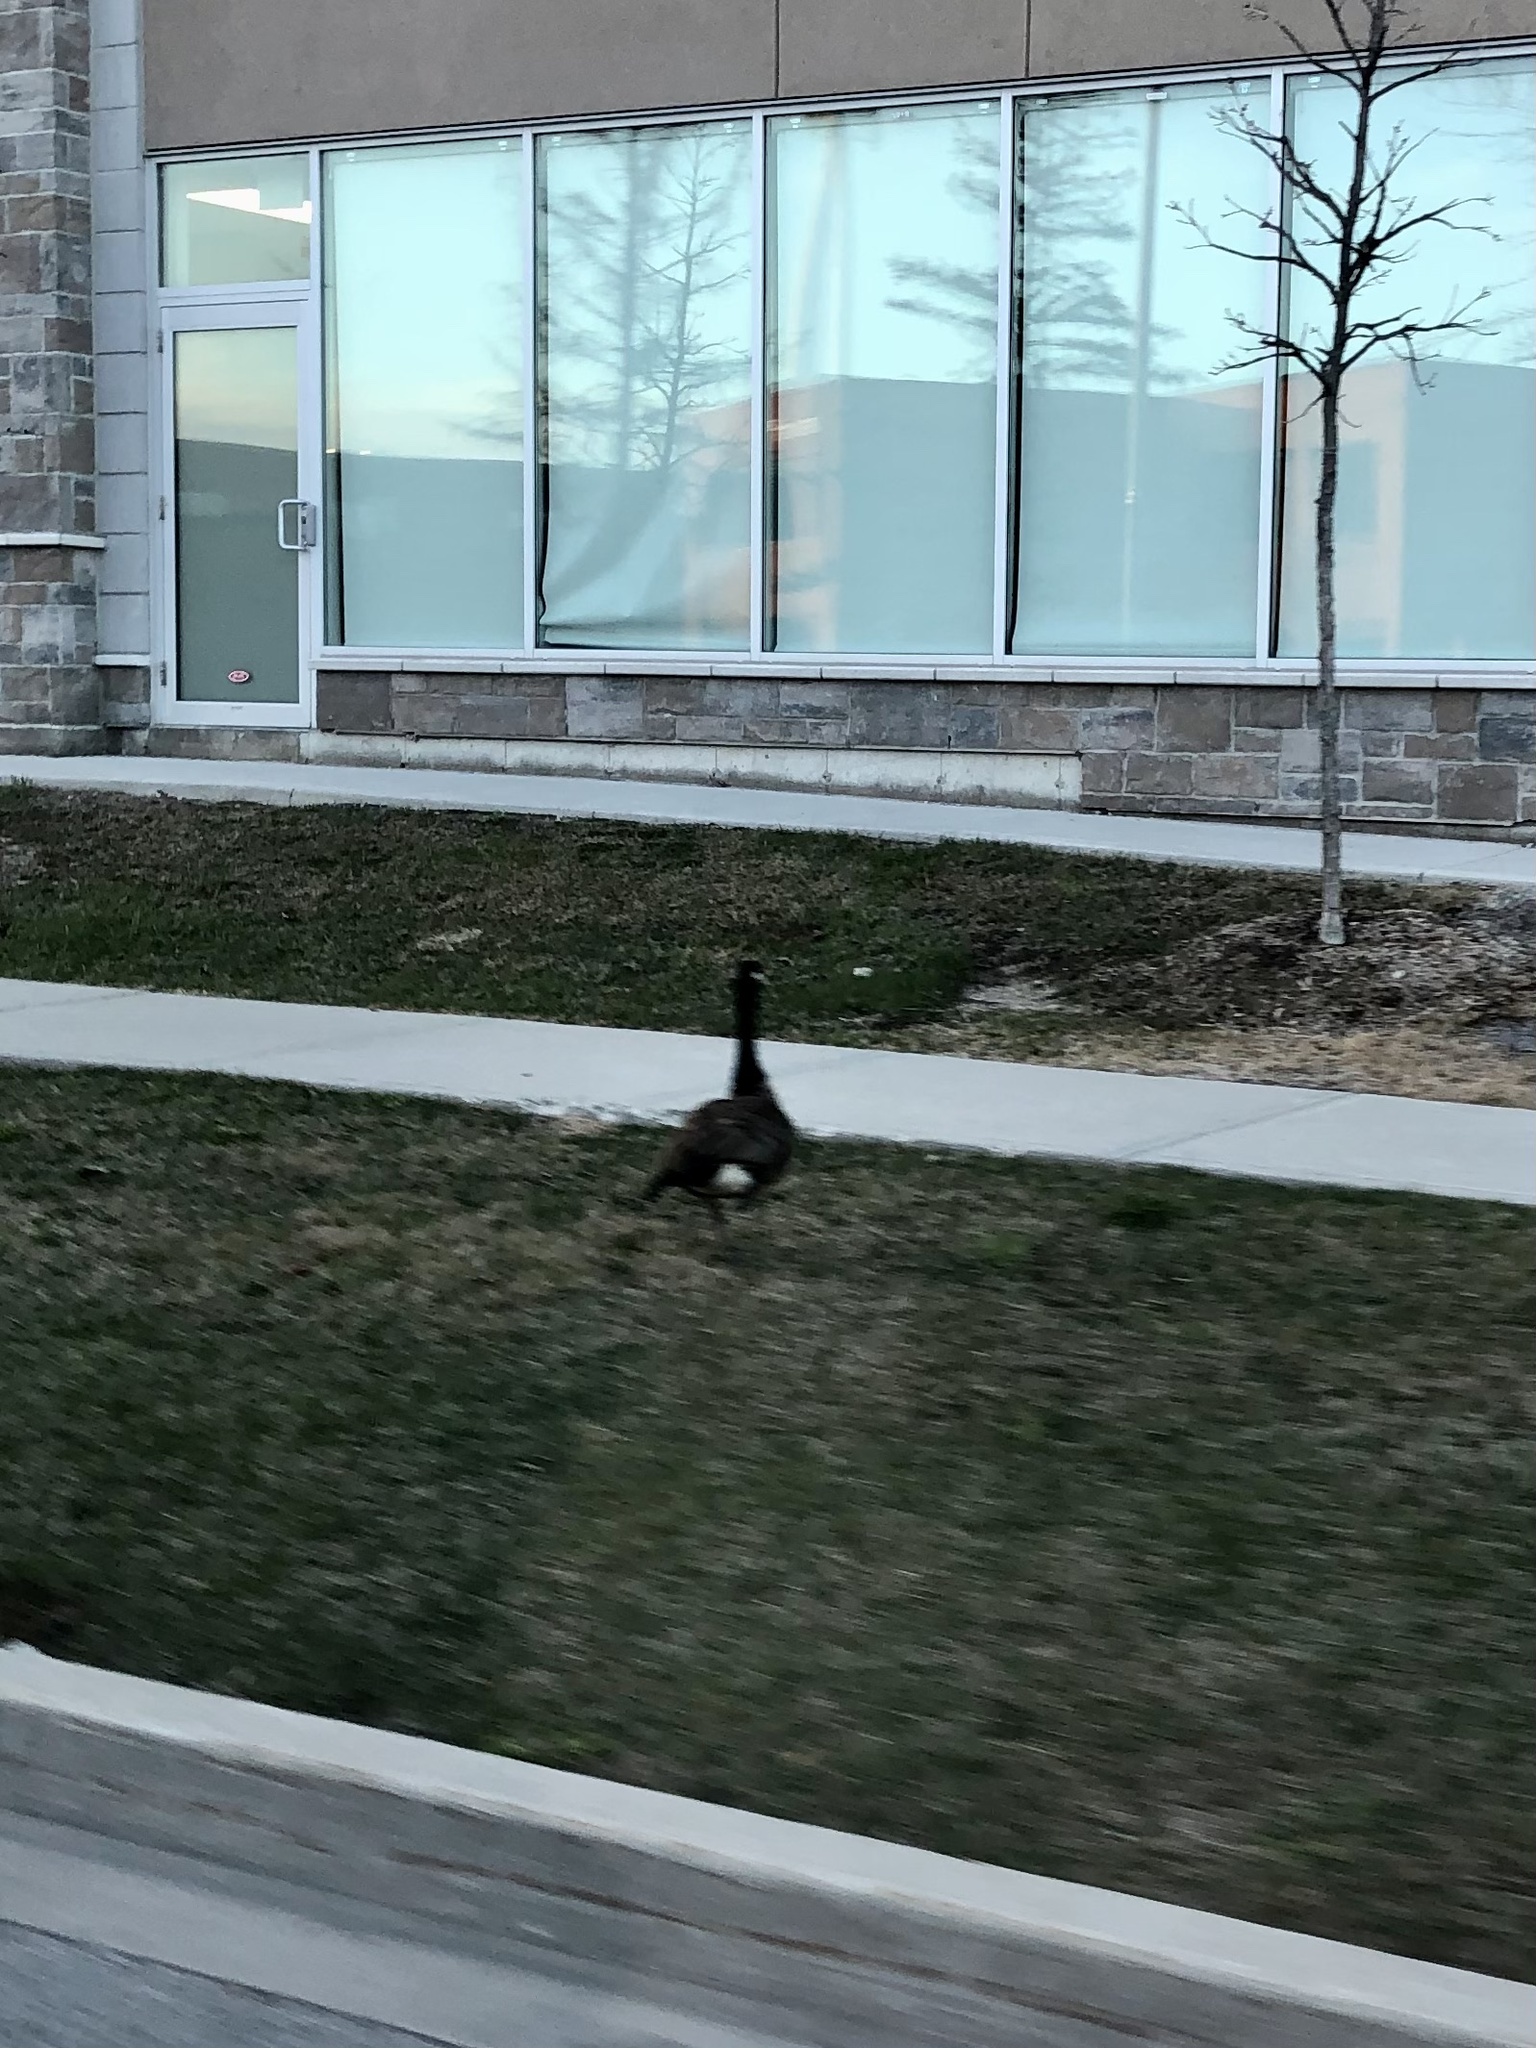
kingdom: Animalia
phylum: Chordata
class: Aves
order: Anseriformes
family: Anatidae
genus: Branta
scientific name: Branta canadensis
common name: Canada goose
